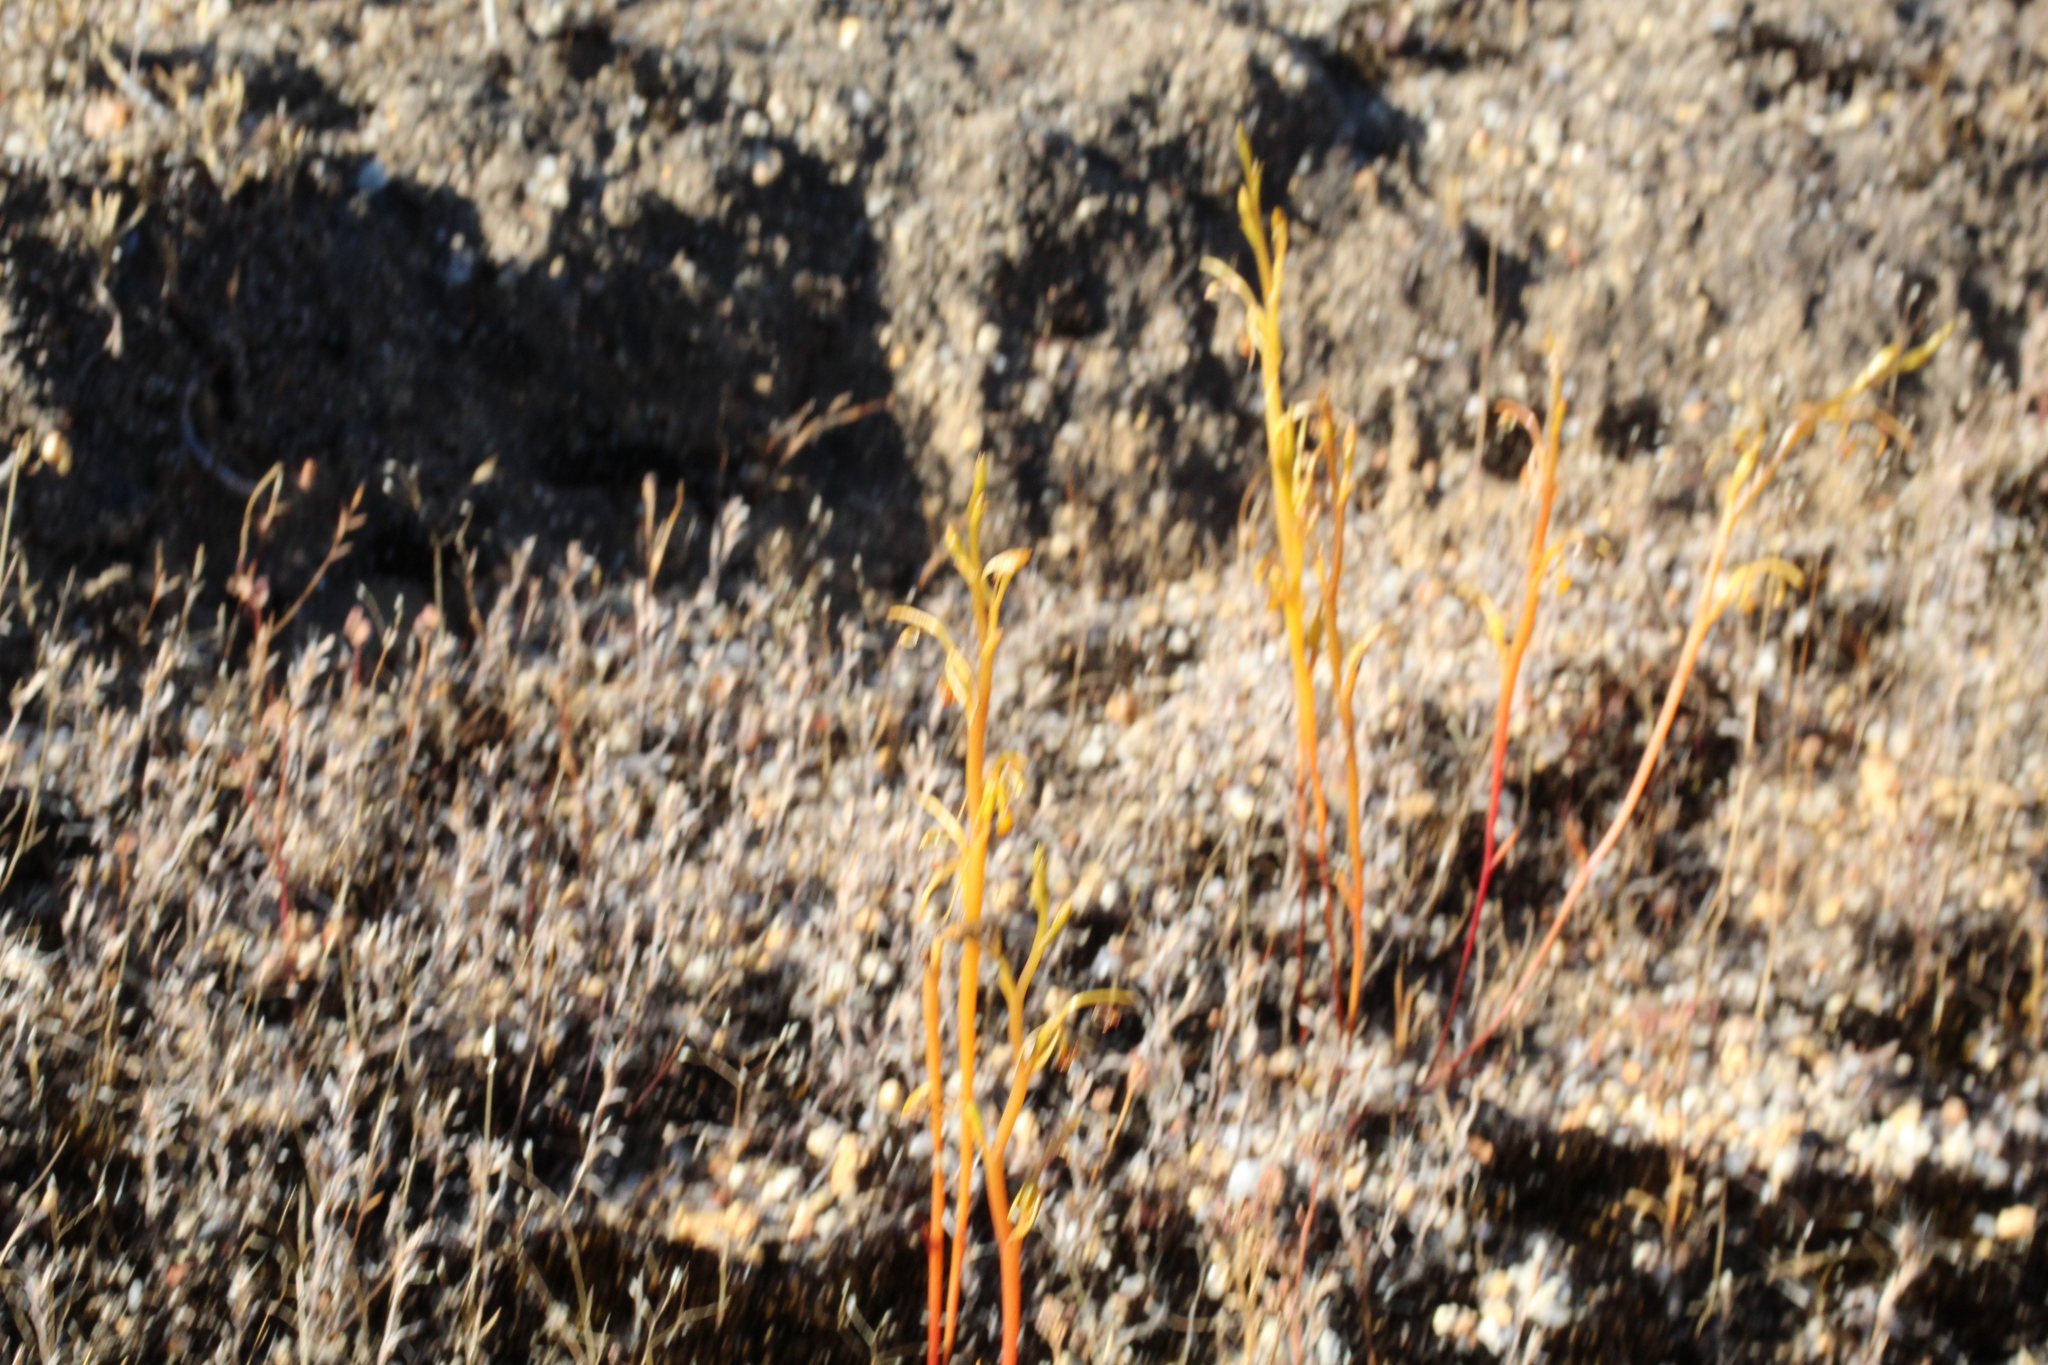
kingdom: Plantae
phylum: Tracheophyta
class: Liliopsida
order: Asparagales
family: Orchidaceae
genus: Spiculaea
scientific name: Spiculaea ciliata
